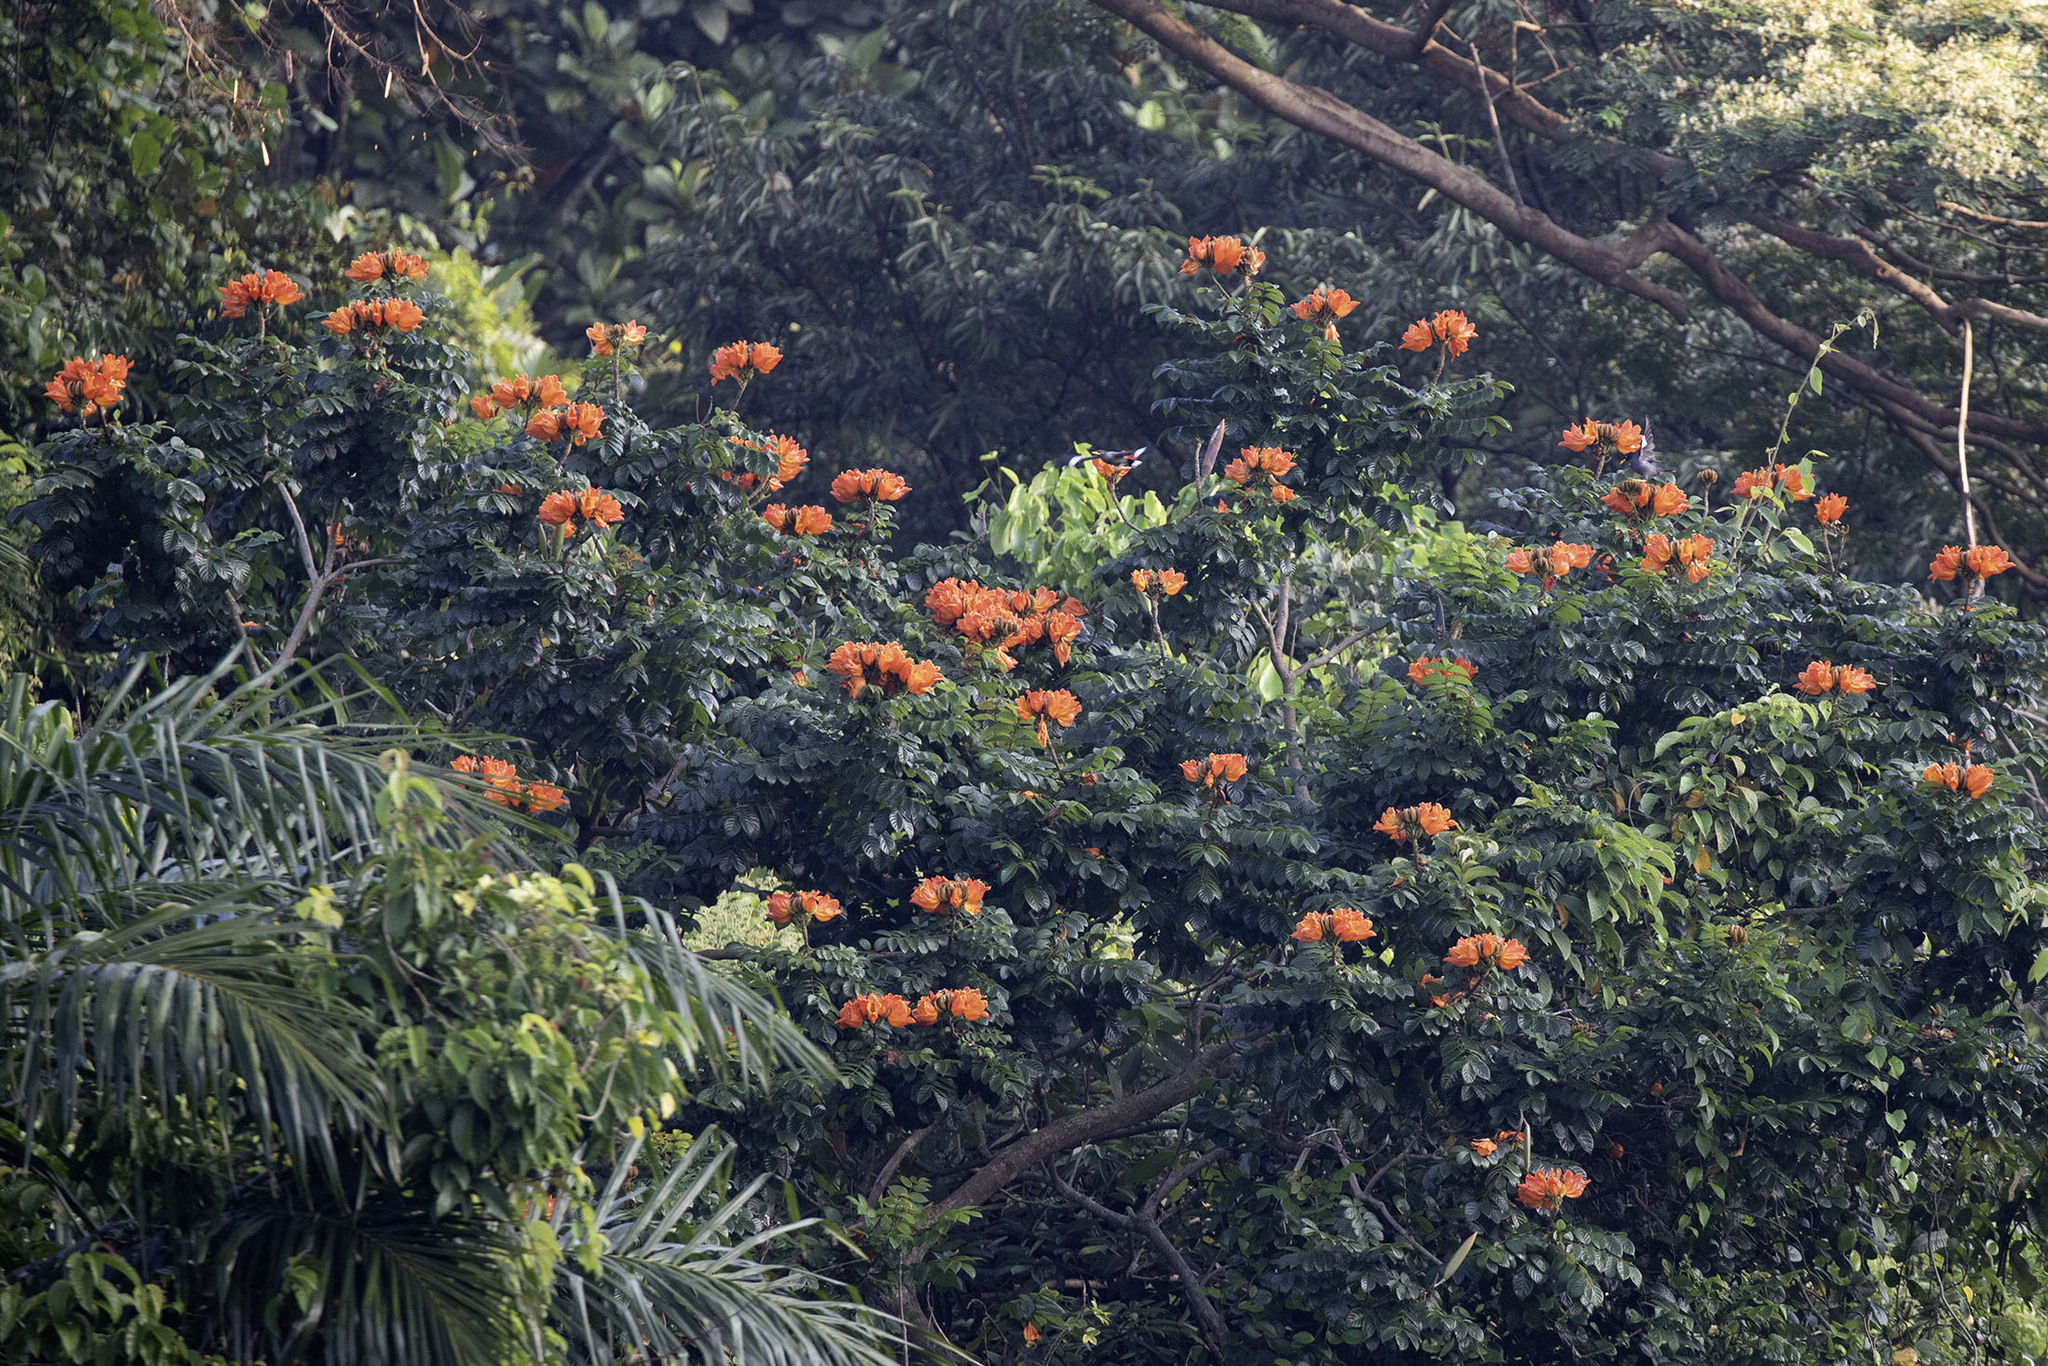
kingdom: Plantae
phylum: Tracheophyta
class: Magnoliopsida
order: Lamiales
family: Bignoniaceae
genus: Spathodea
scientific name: Spathodea campanulata
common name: African tuliptree
